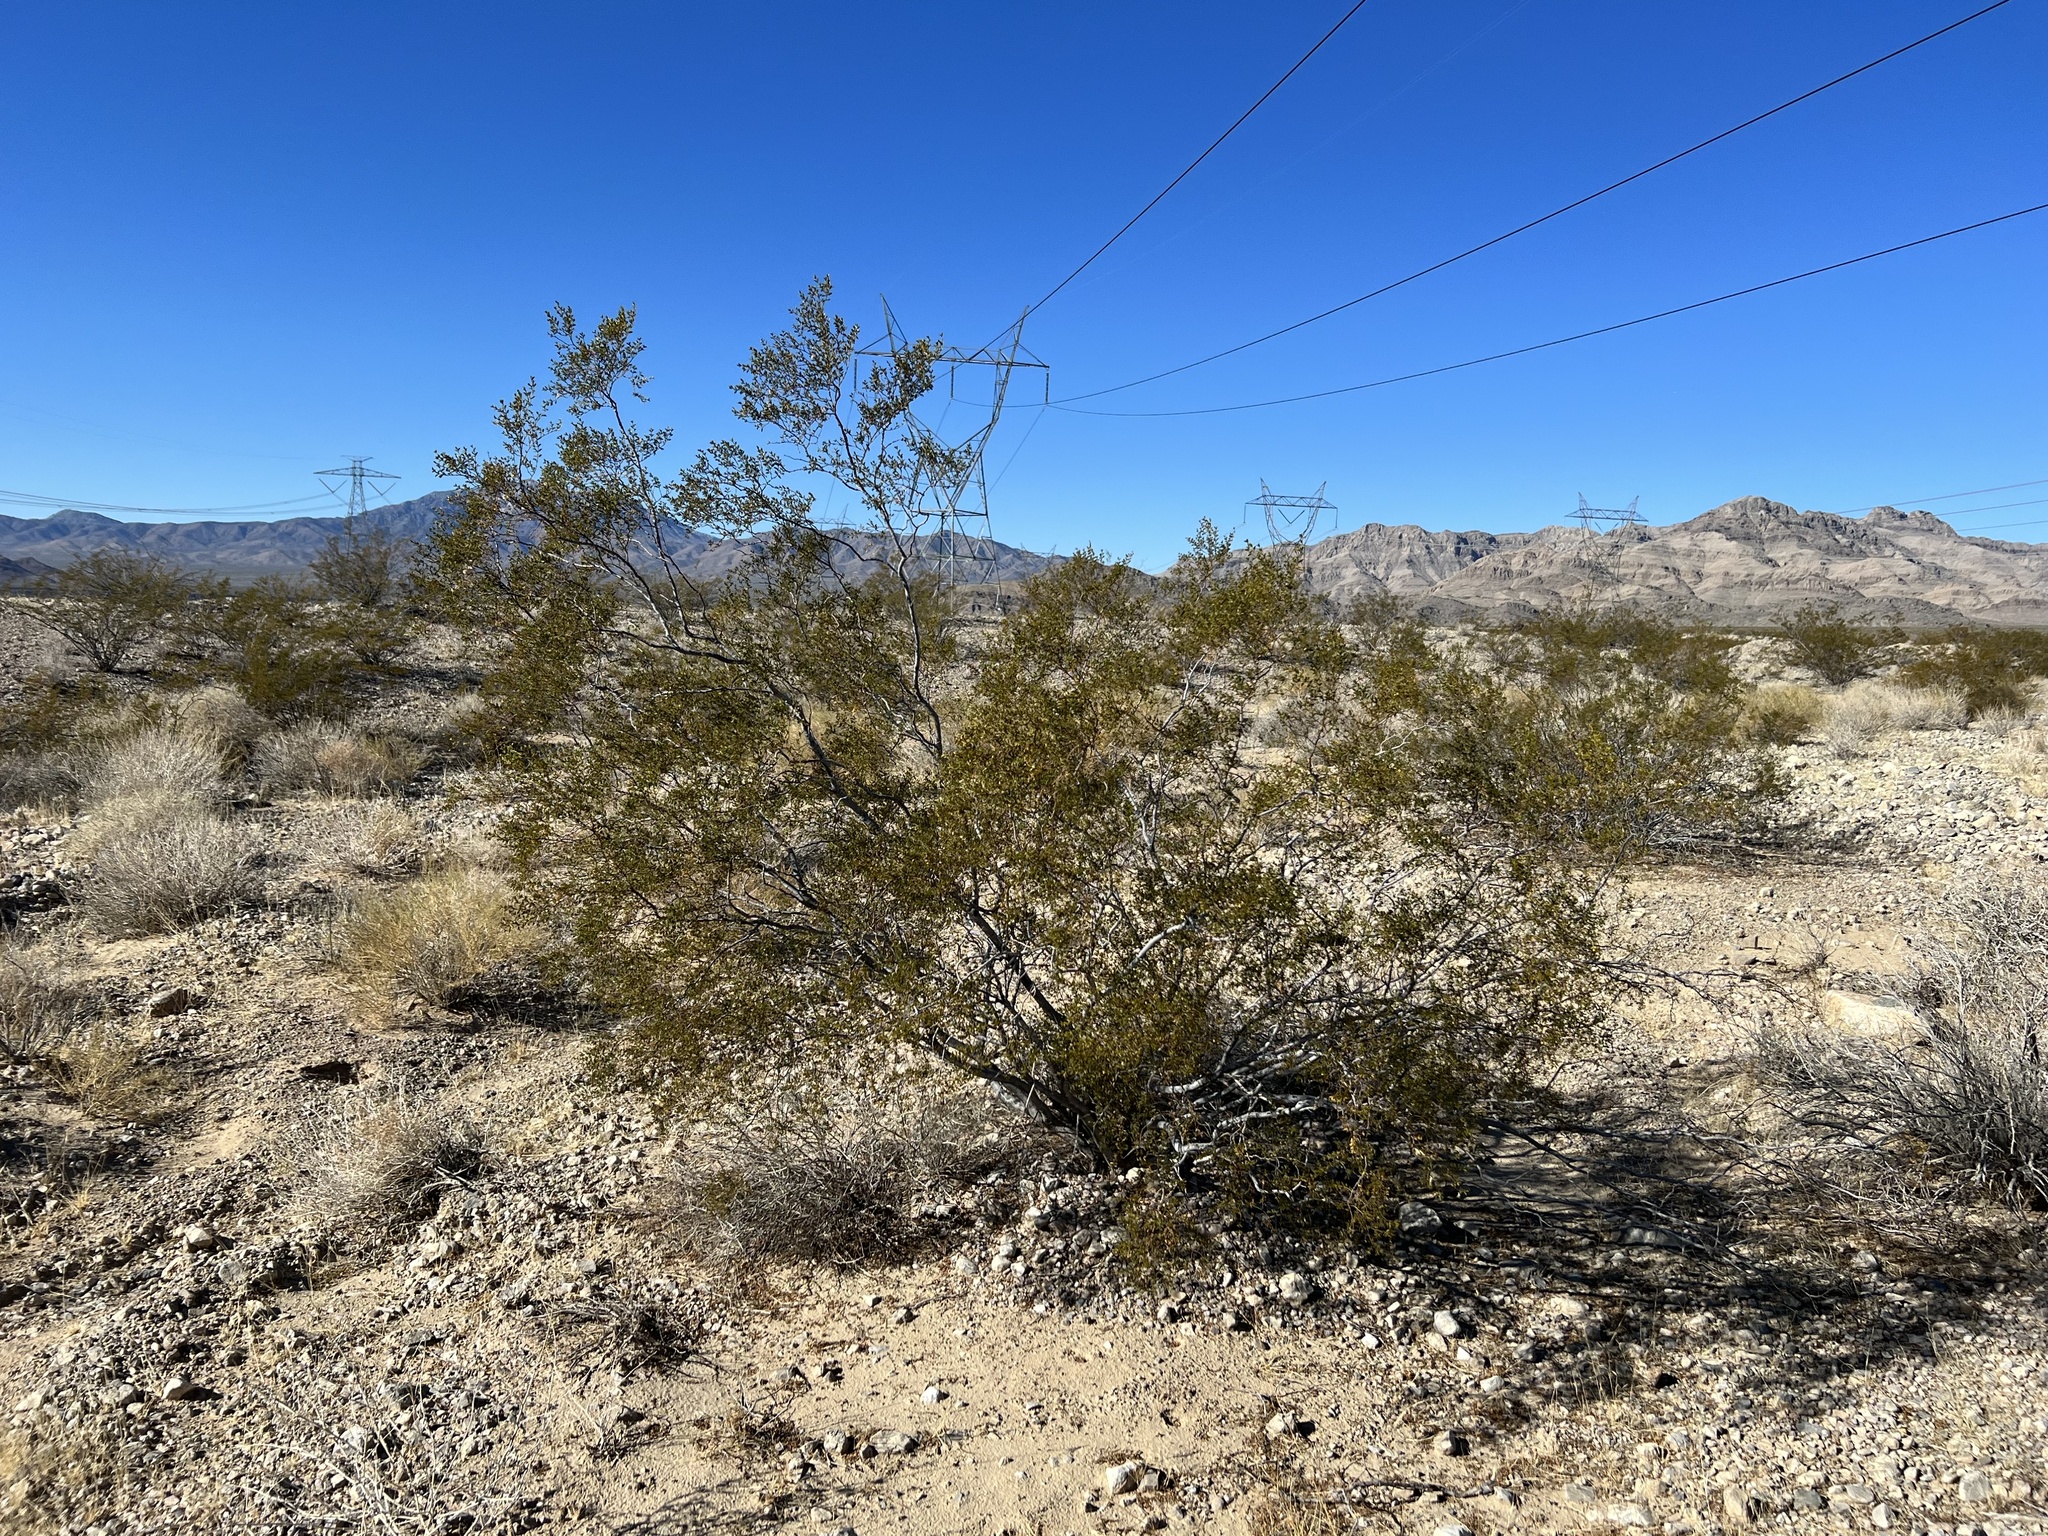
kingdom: Plantae
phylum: Tracheophyta
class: Magnoliopsida
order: Zygophyllales
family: Zygophyllaceae
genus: Larrea
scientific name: Larrea tridentata
